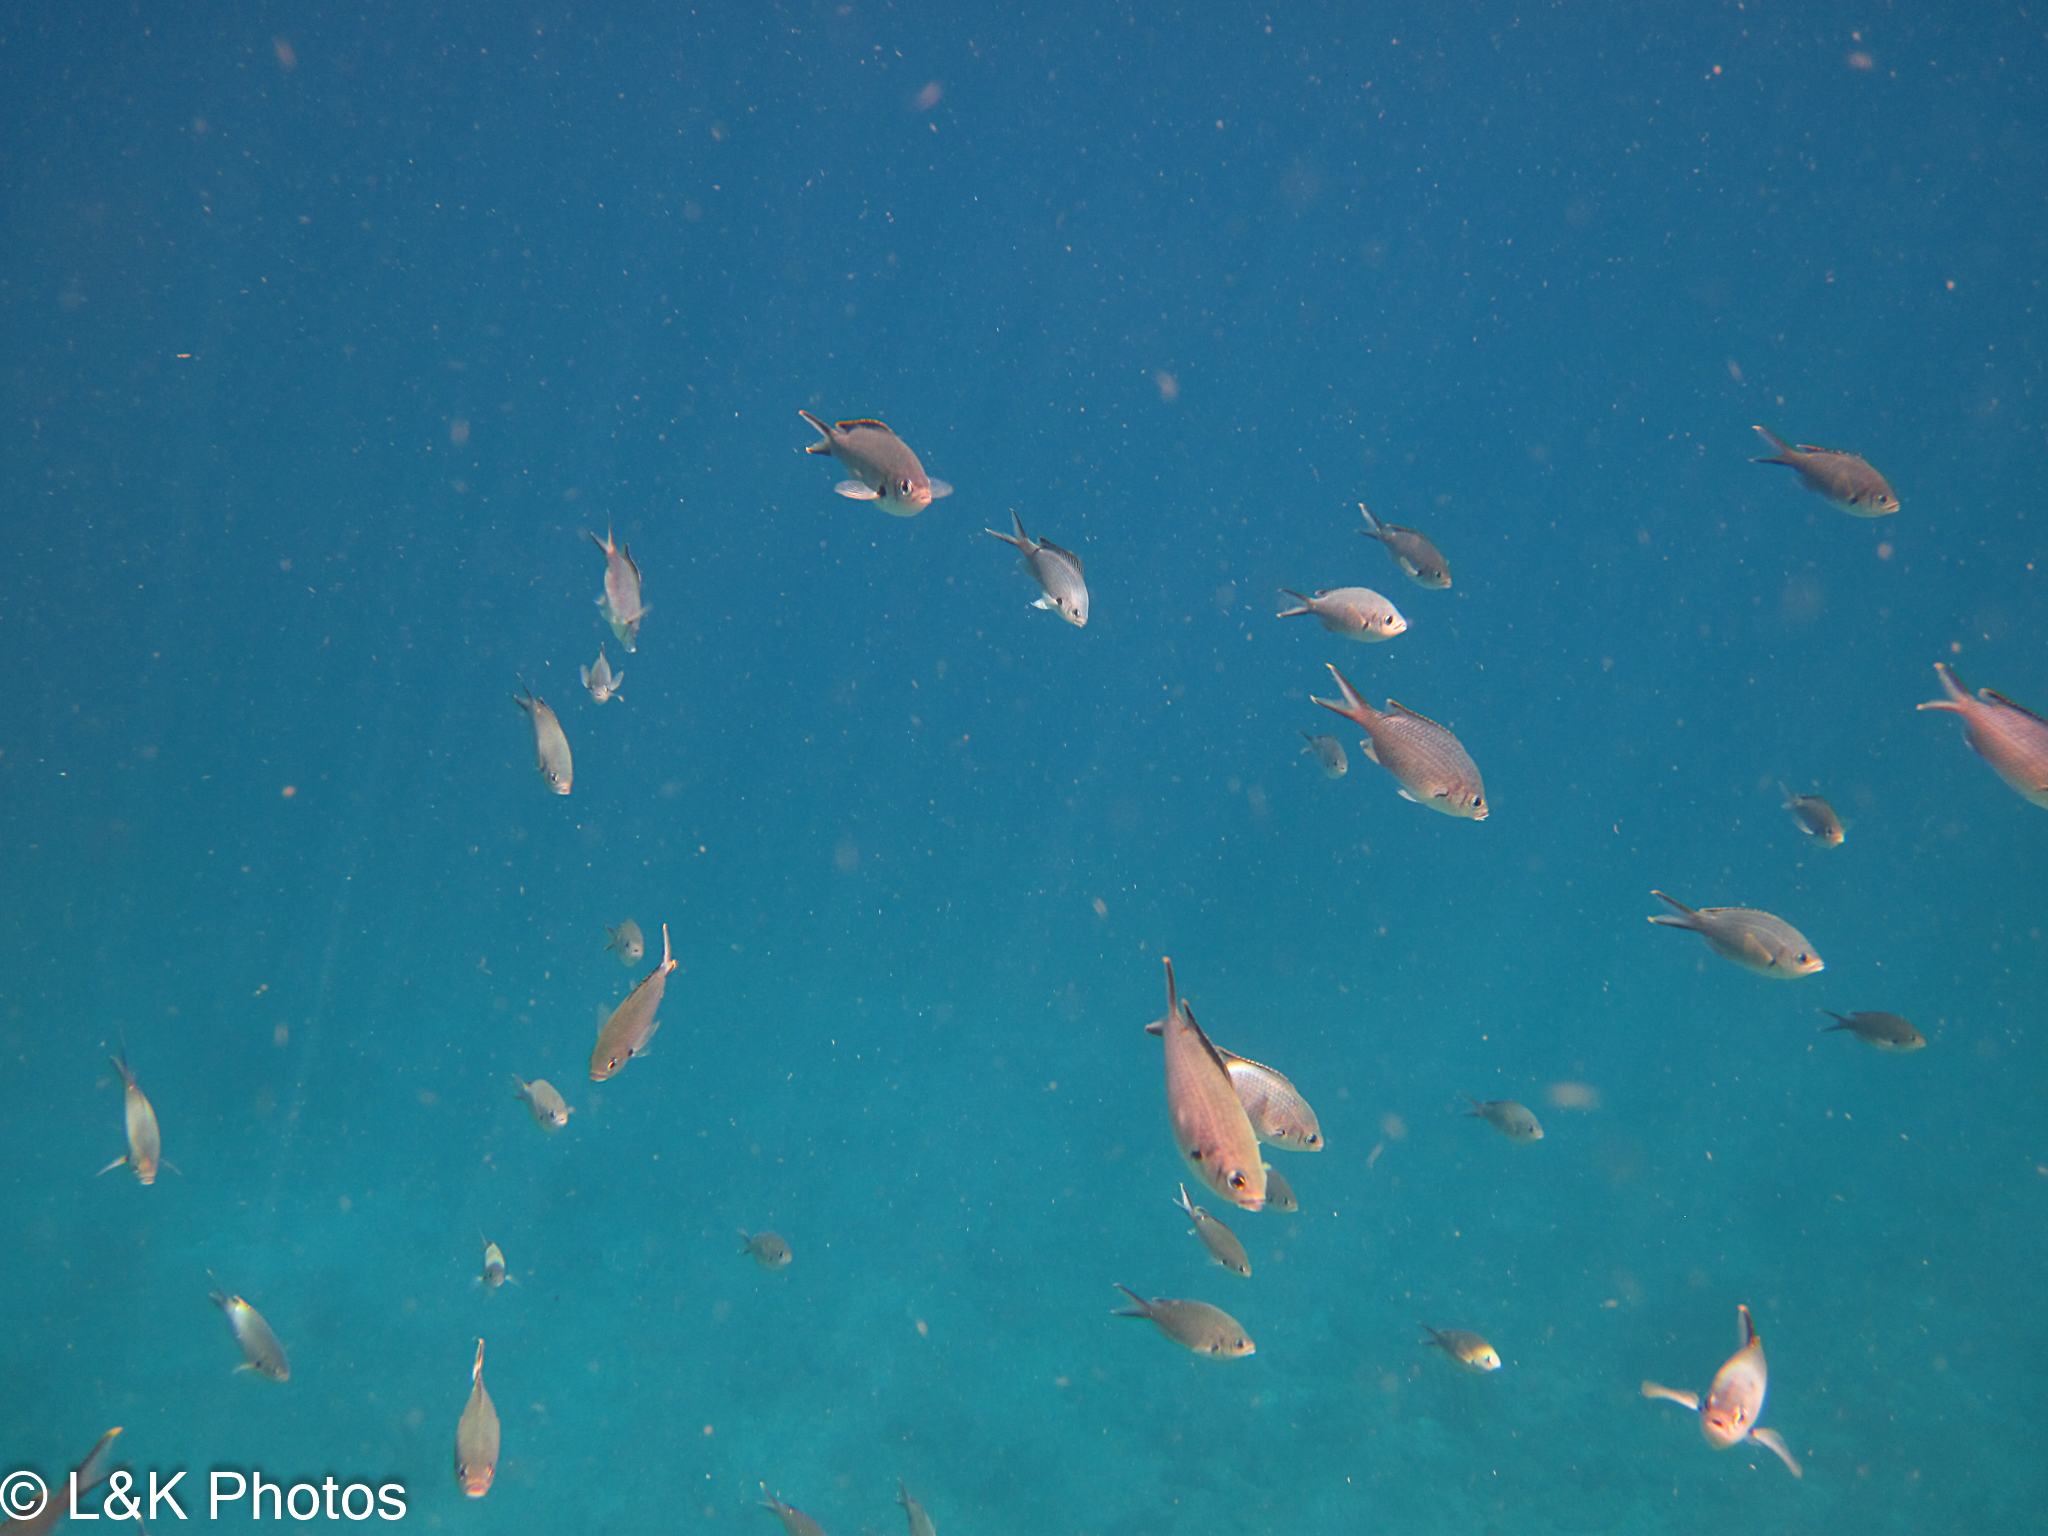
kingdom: Animalia
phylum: Chordata
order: Perciformes
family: Pomacentridae
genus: Chromis
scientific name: Chromis multilineata
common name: Brown chromis
